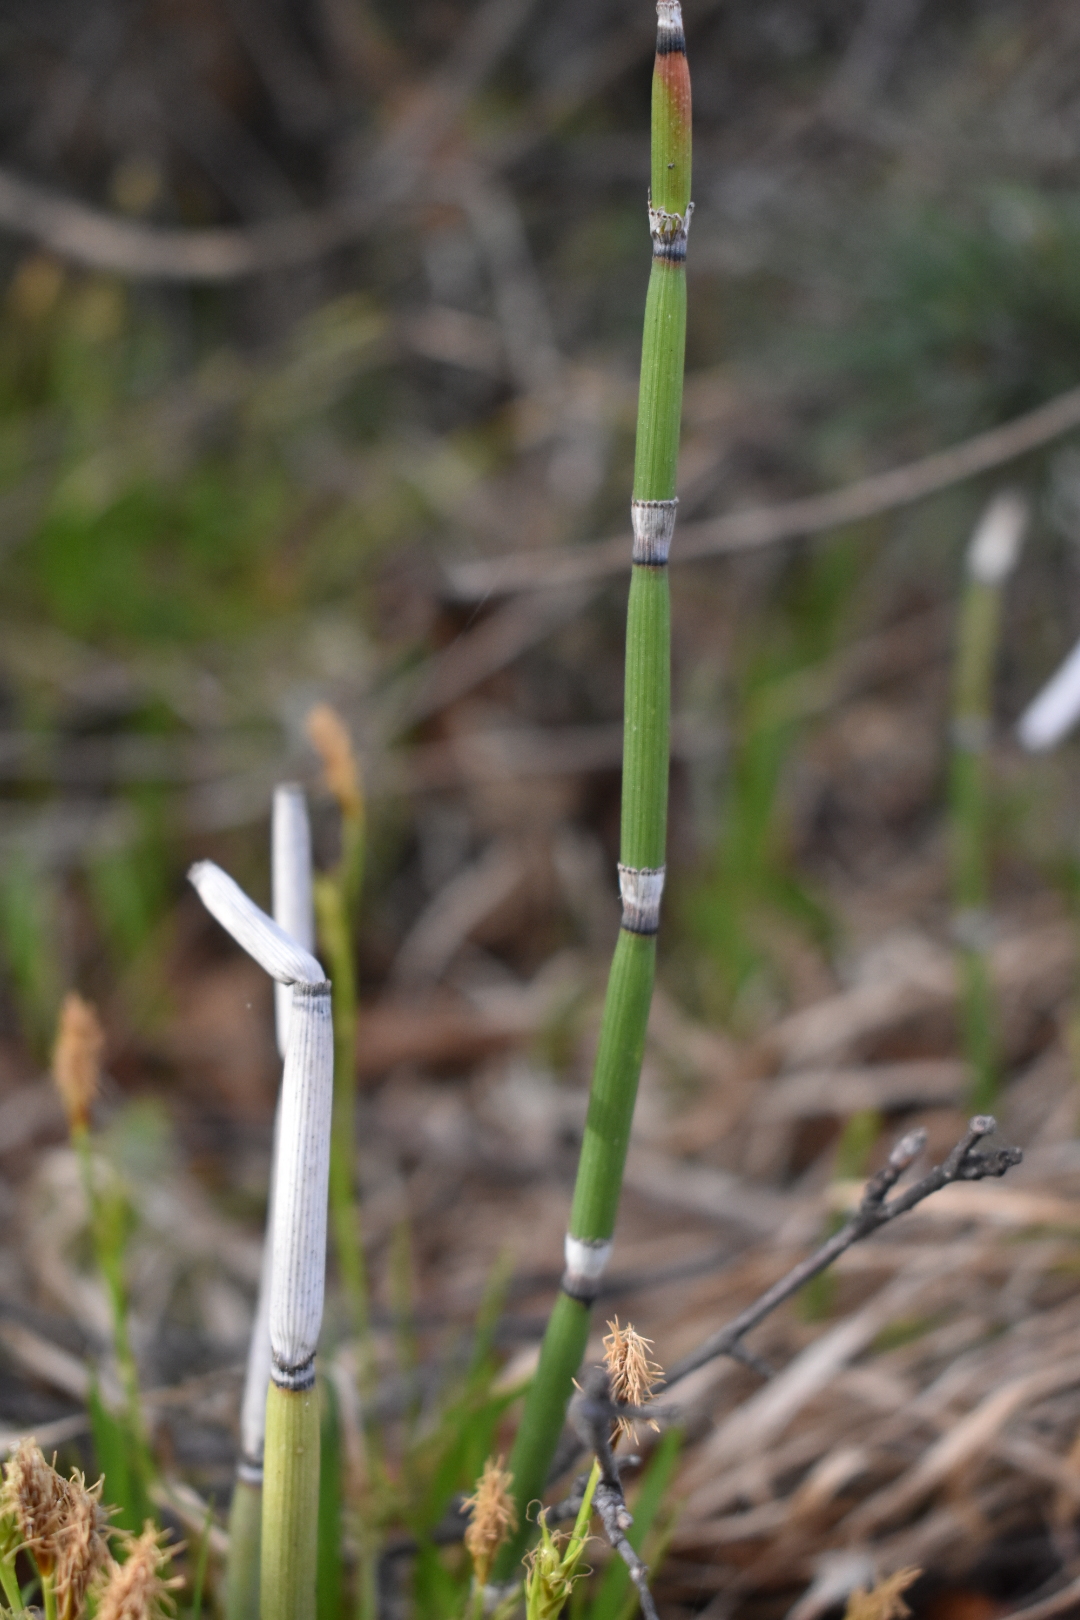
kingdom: Plantae
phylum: Tracheophyta
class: Polypodiopsida
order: Equisetales
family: Equisetaceae
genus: Equisetum
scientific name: Equisetum hyemale
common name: Rough horsetail
